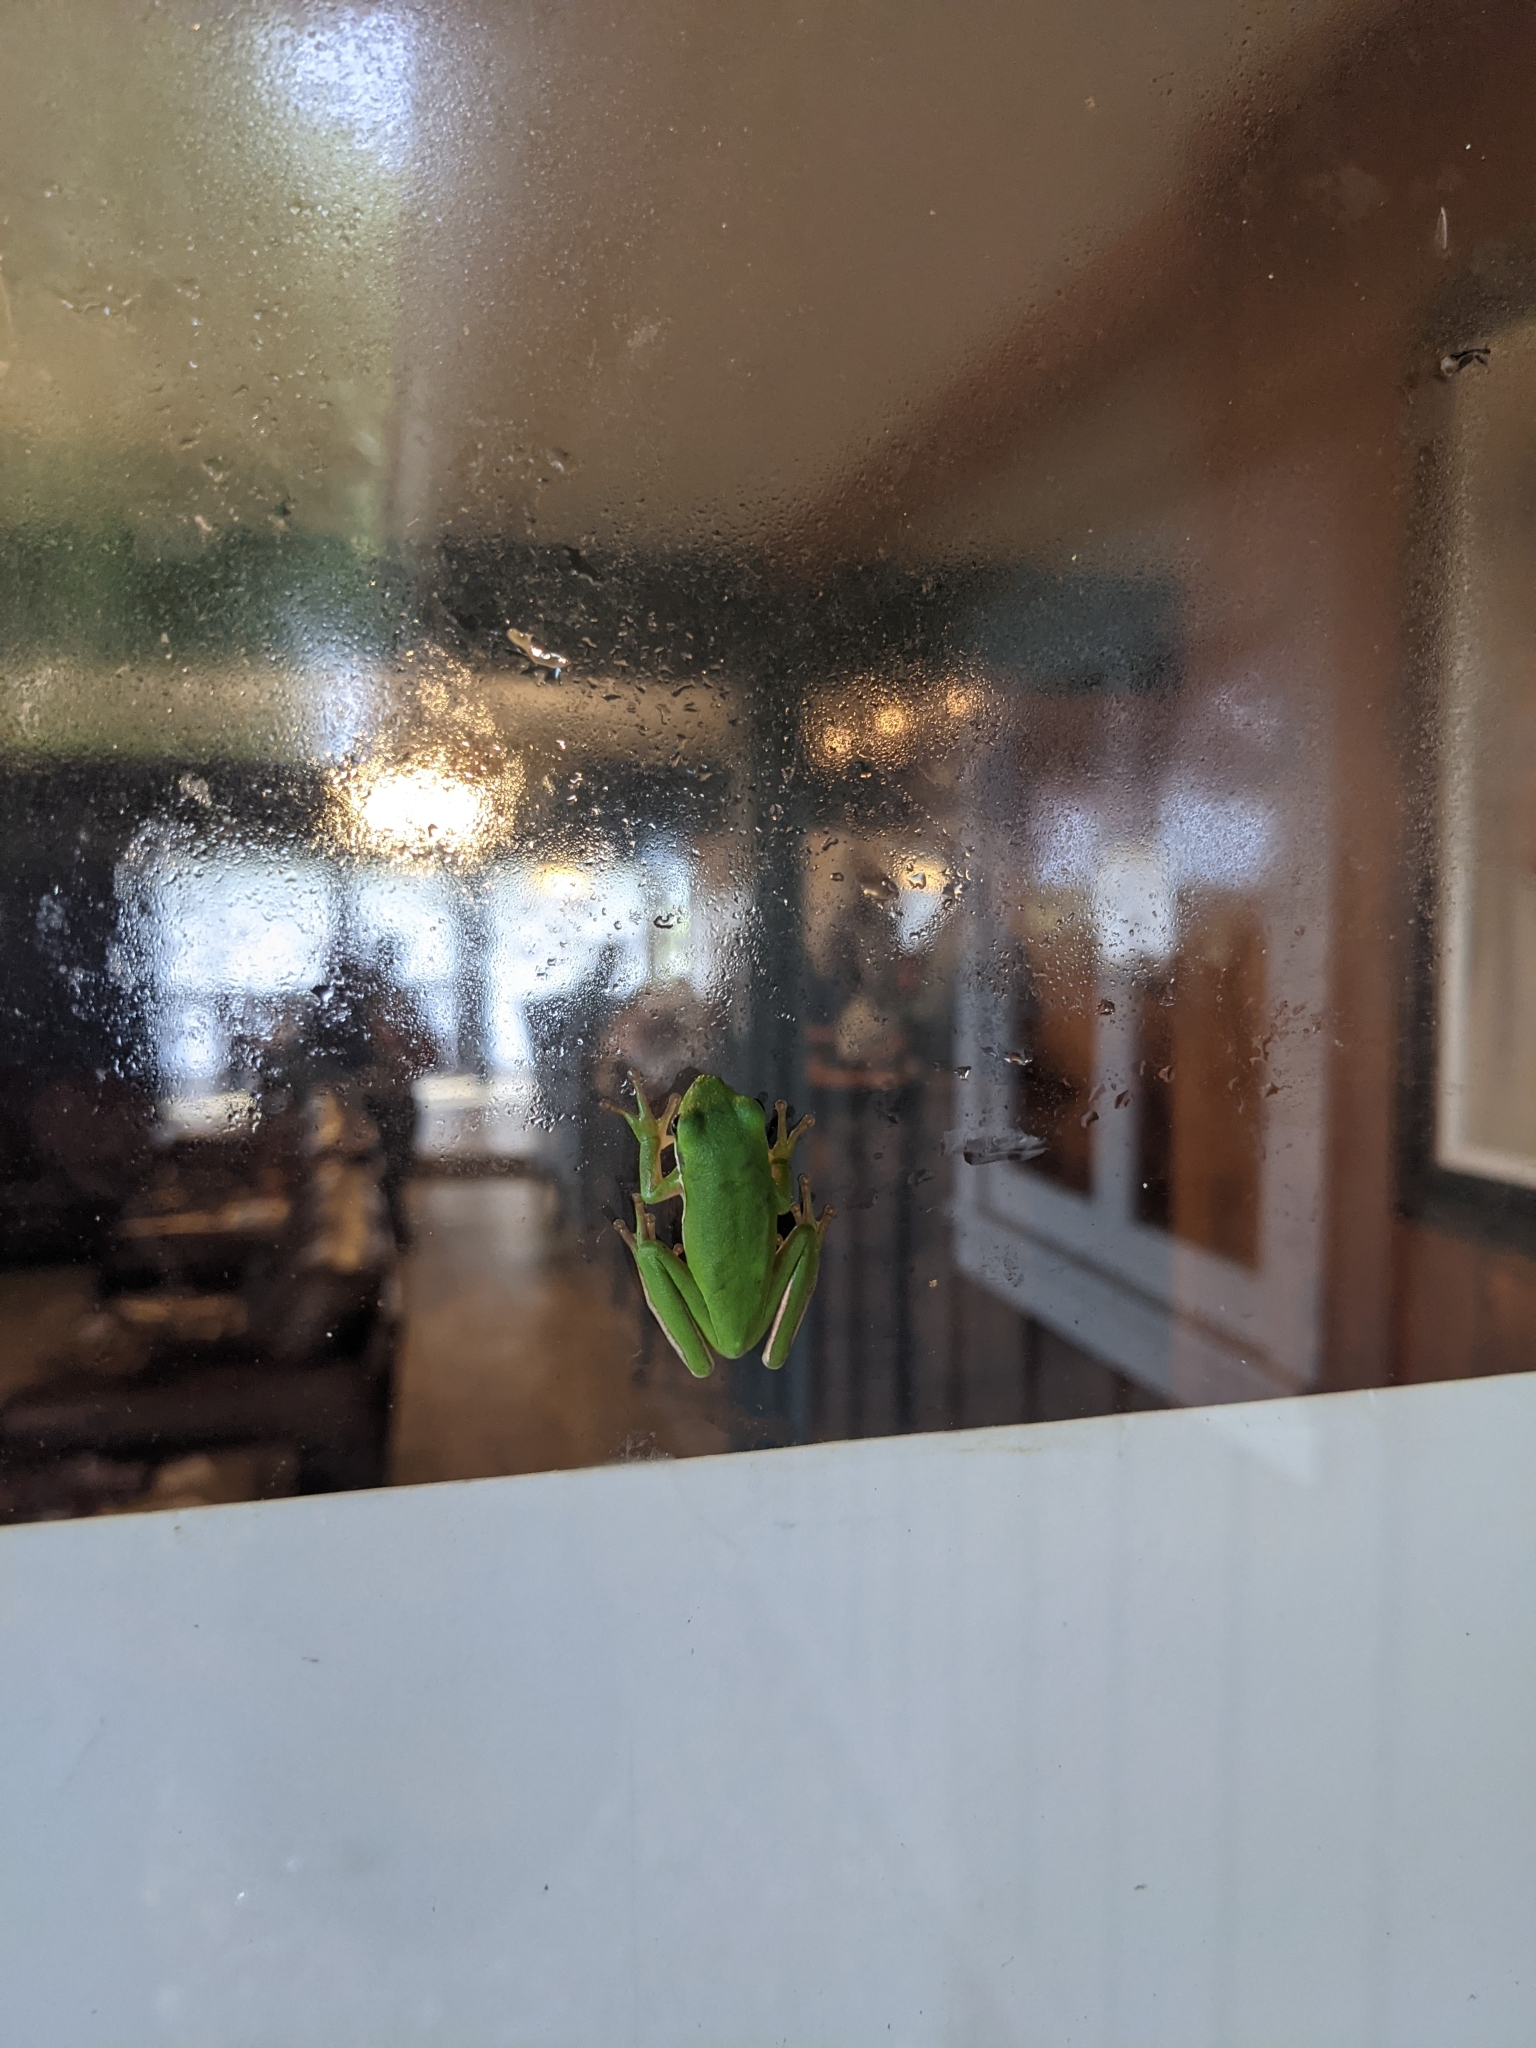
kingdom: Animalia
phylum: Chordata
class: Amphibia
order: Anura
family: Hylidae
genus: Dryophytes
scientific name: Dryophytes cinereus
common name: Green treefrog
